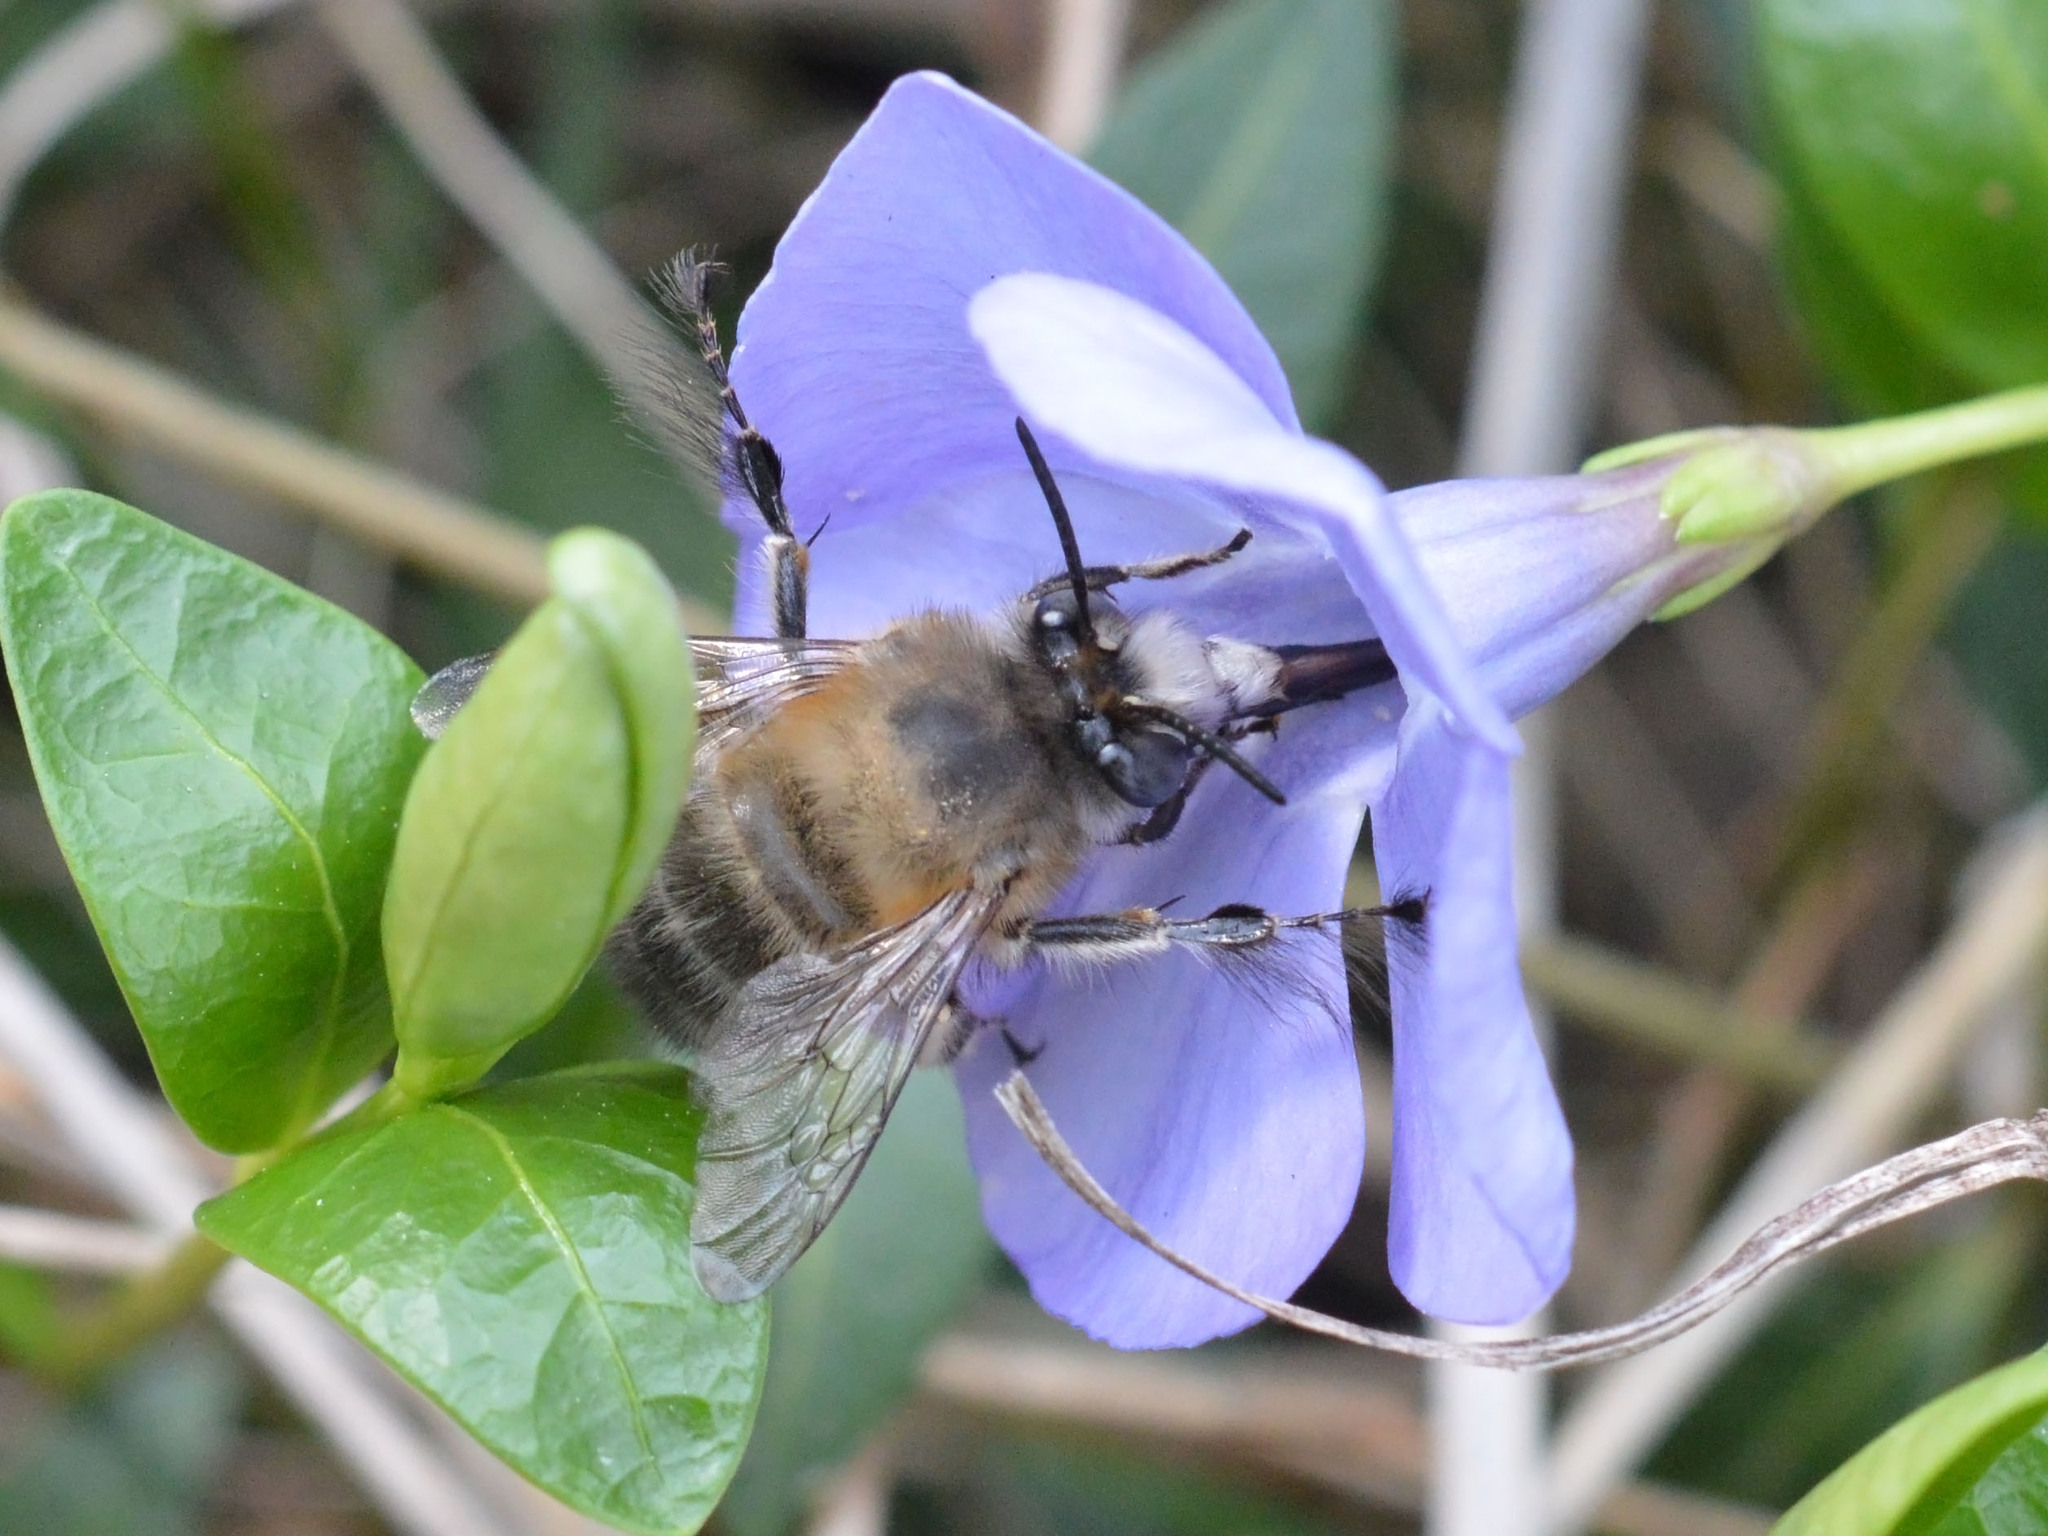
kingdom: Animalia
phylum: Arthropoda
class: Insecta
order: Hymenoptera
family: Apidae
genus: Anthophora
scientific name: Anthophora plumipes
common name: Hairy-footed flower bee
